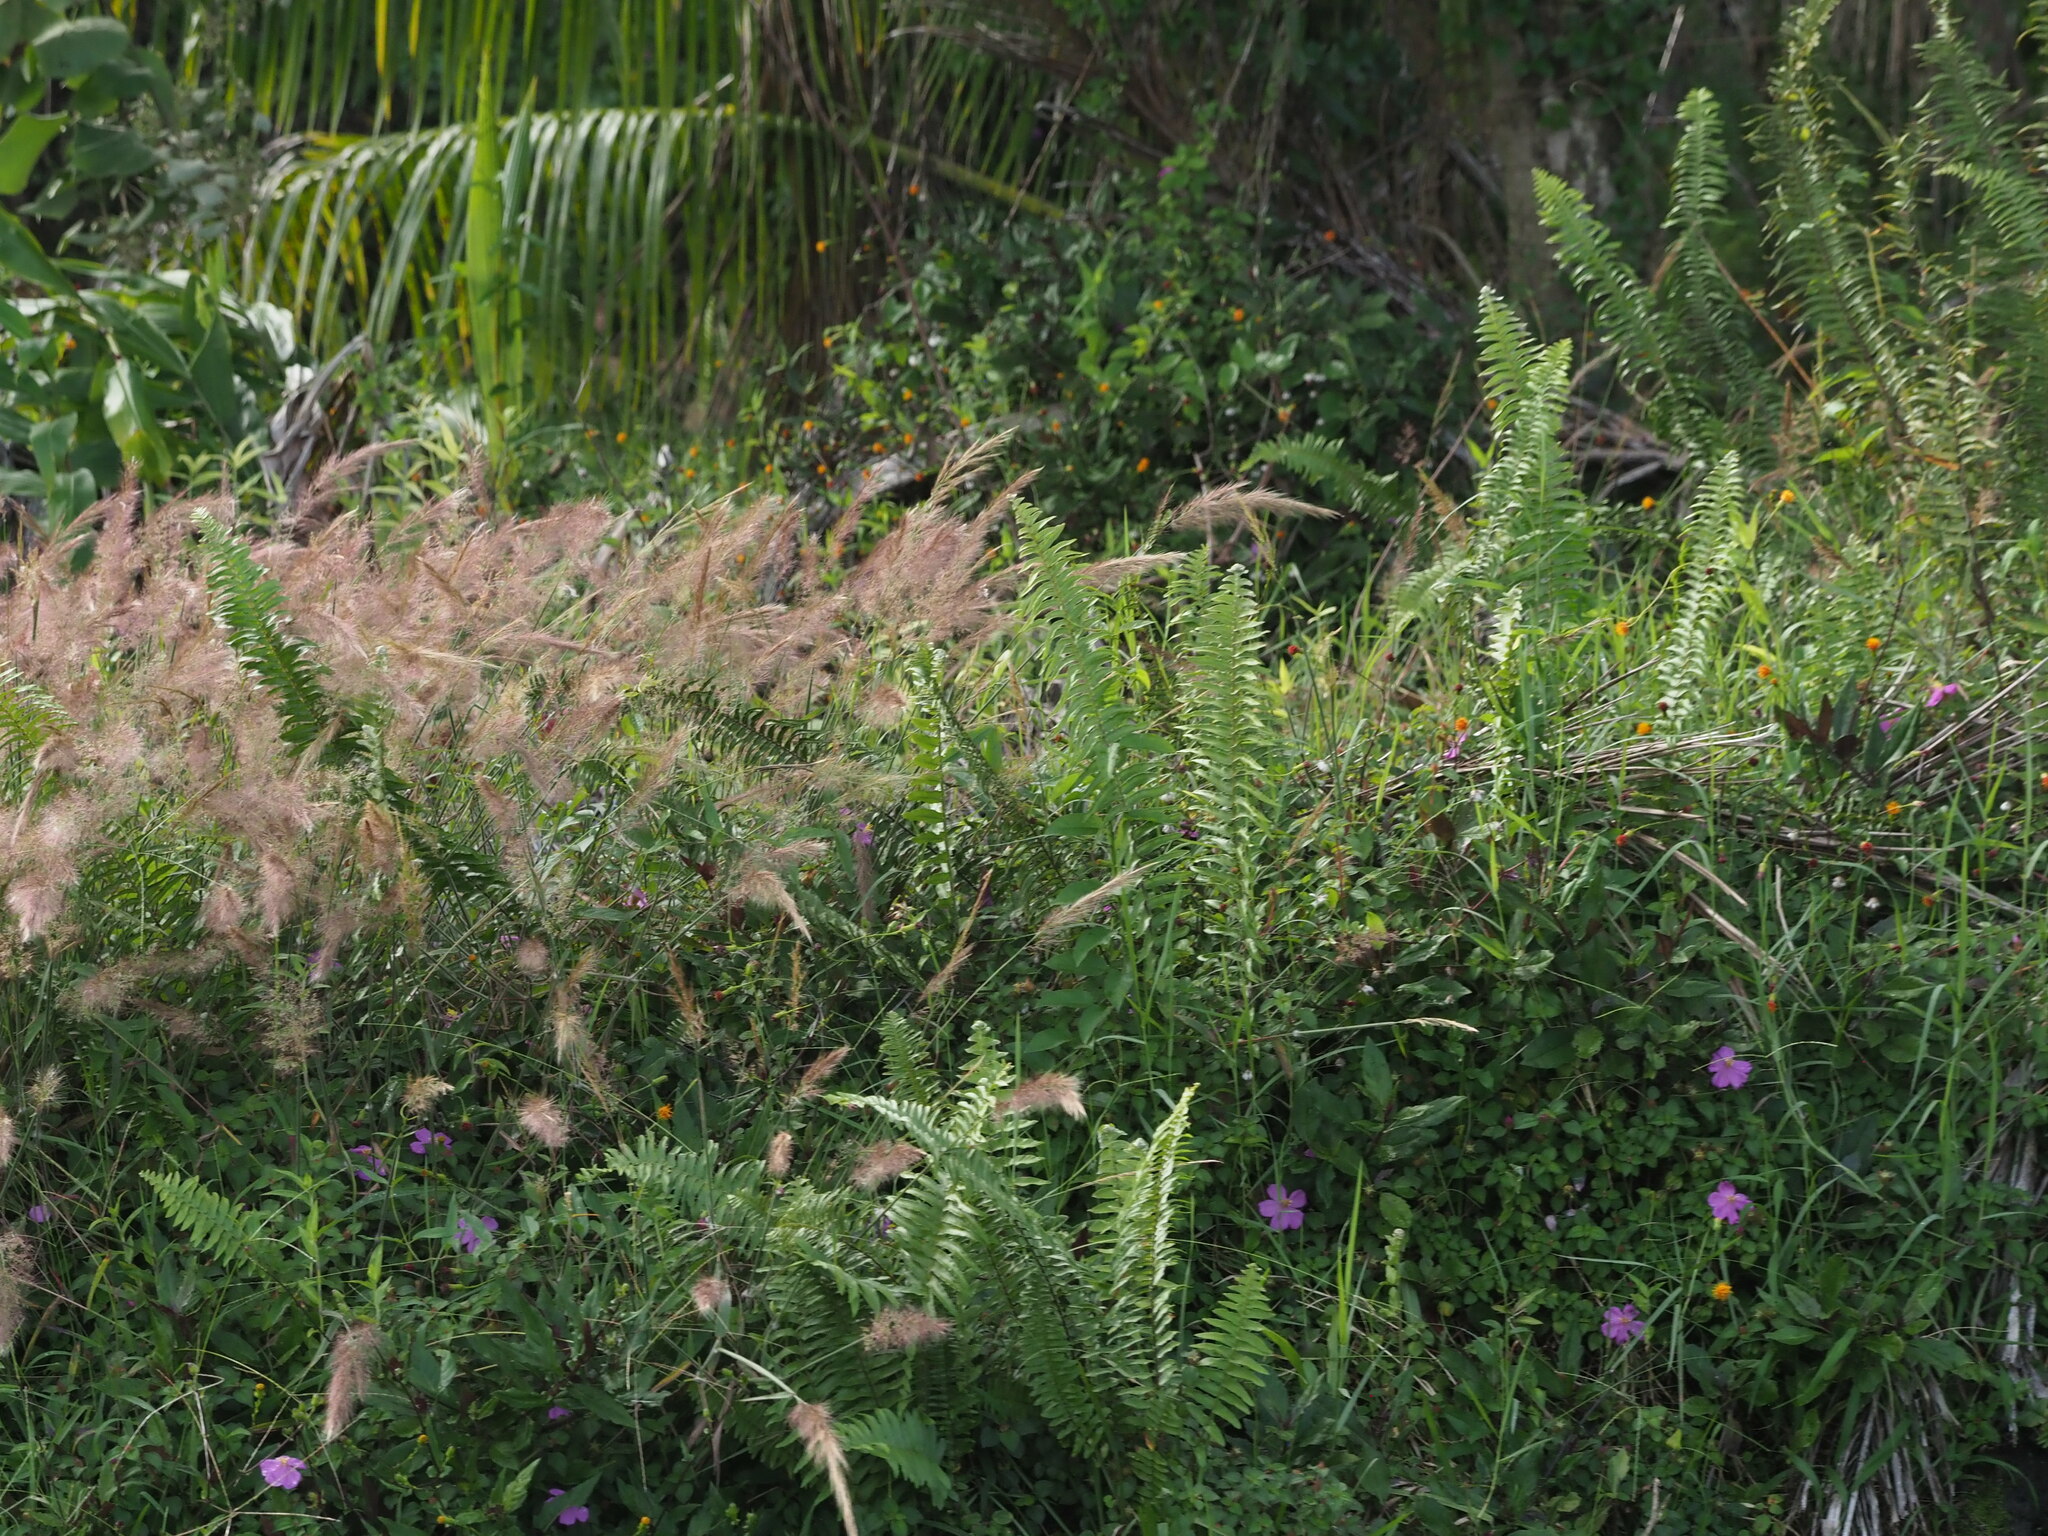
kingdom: Plantae
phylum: Tracheophyta
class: Liliopsida
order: Poales
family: Poaceae
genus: Melinis
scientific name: Melinis minutiflora
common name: Molassesgrass
